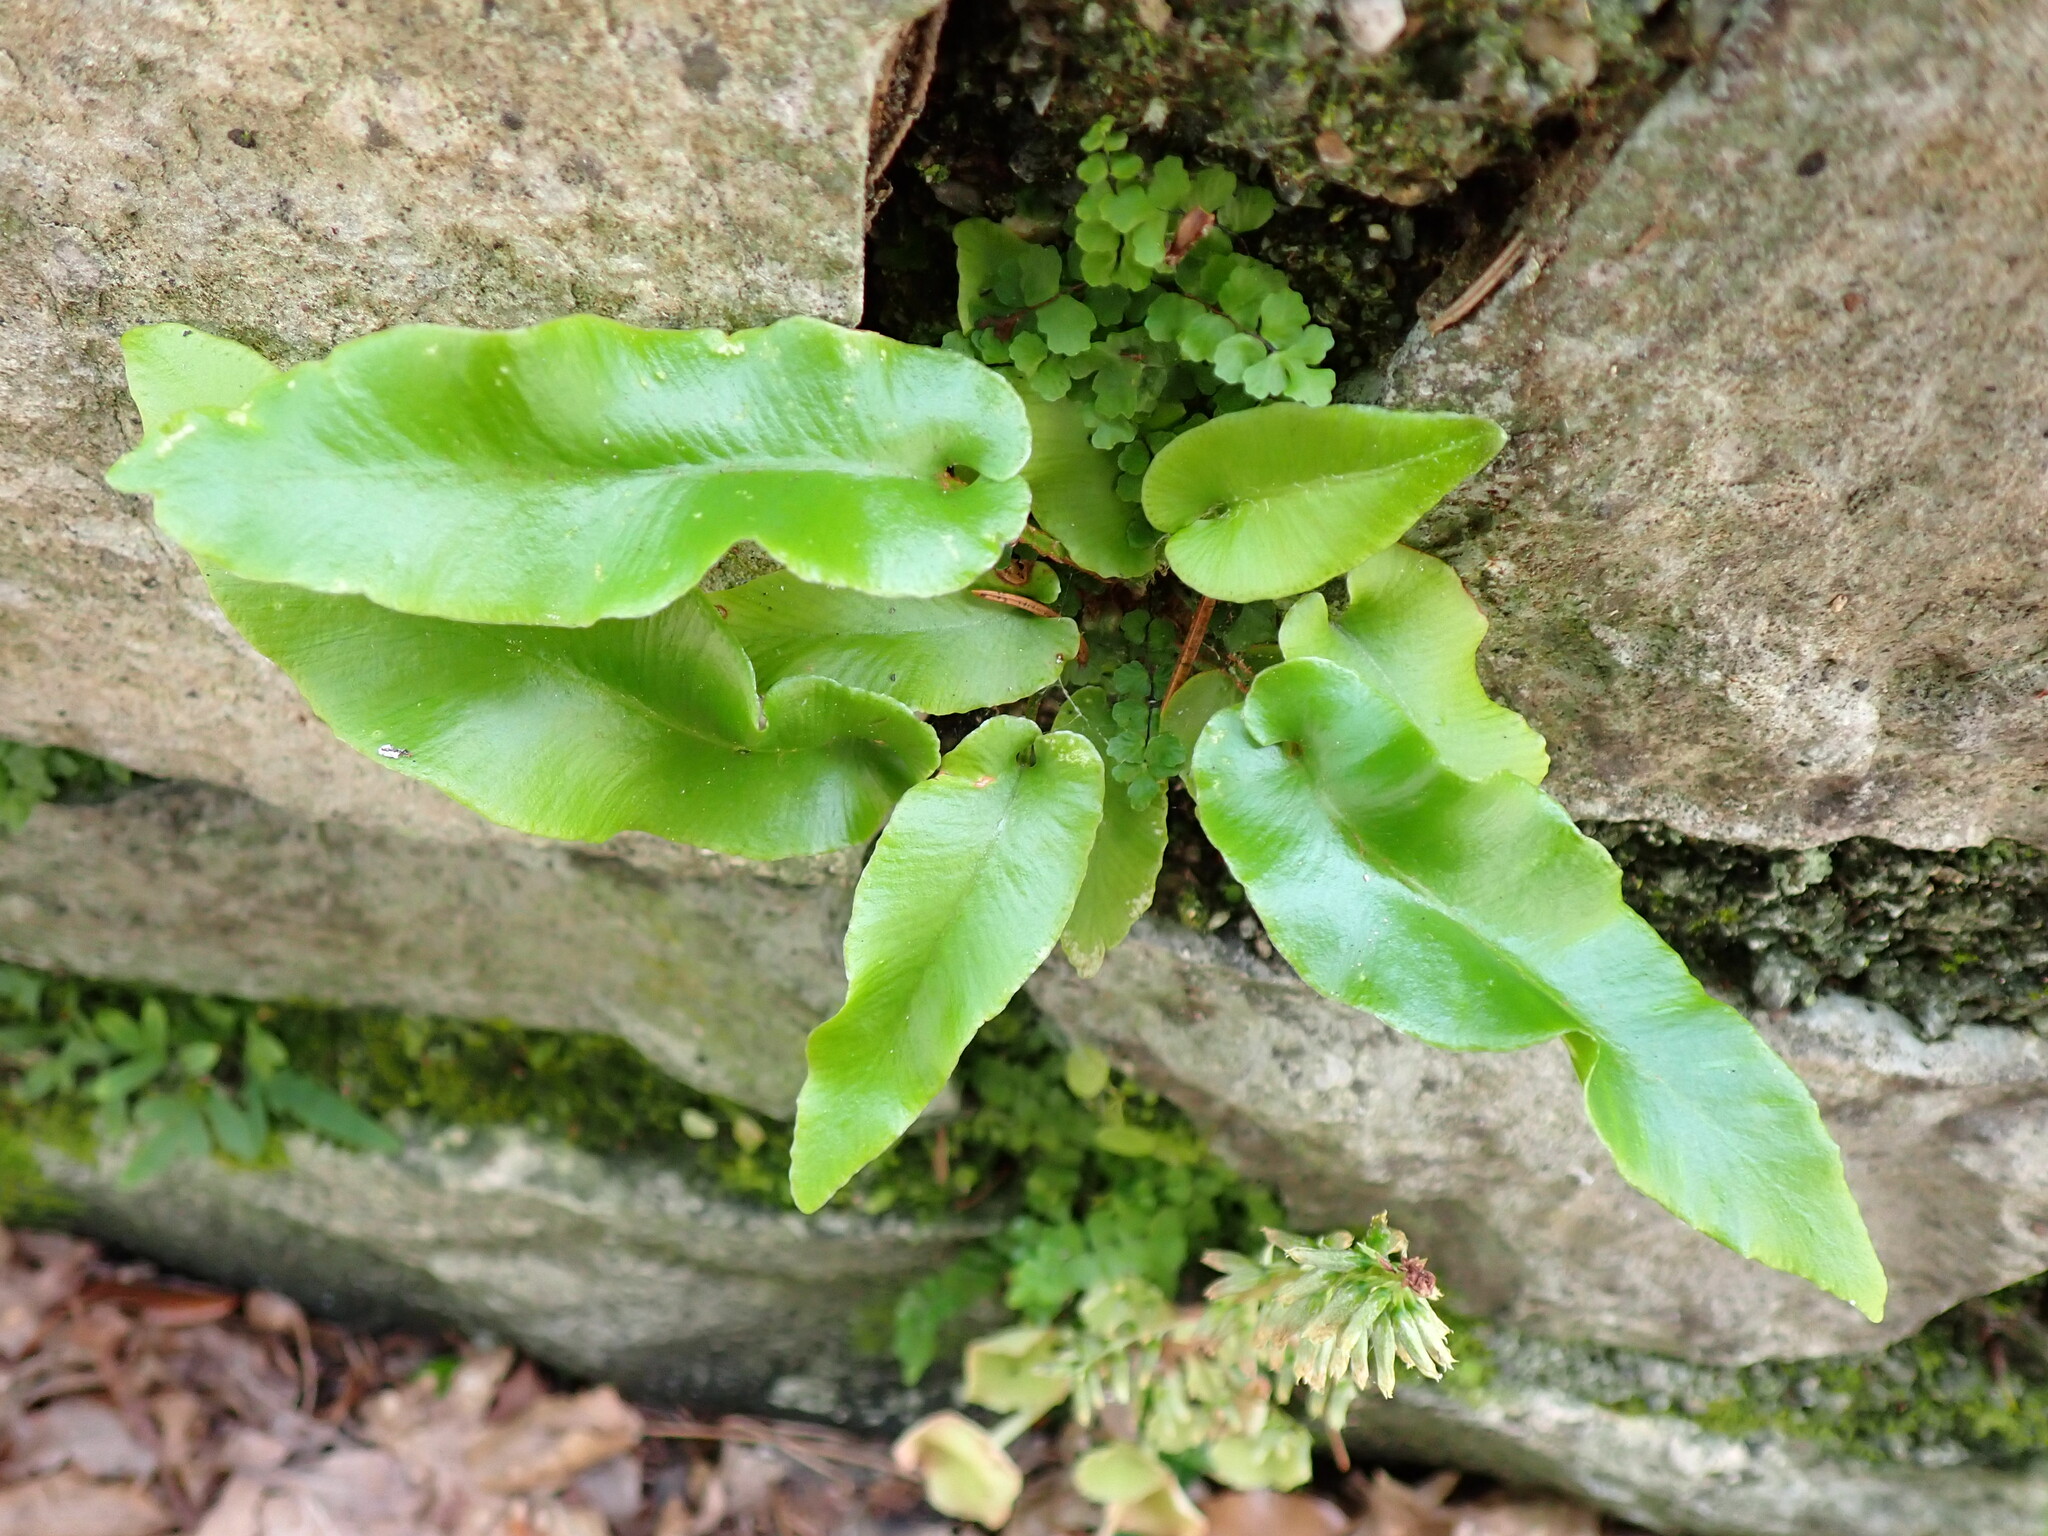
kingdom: Plantae
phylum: Tracheophyta
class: Polypodiopsida
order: Polypodiales
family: Aspleniaceae
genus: Asplenium
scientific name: Asplenium scolopendrium
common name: Hart's-tongue fern
